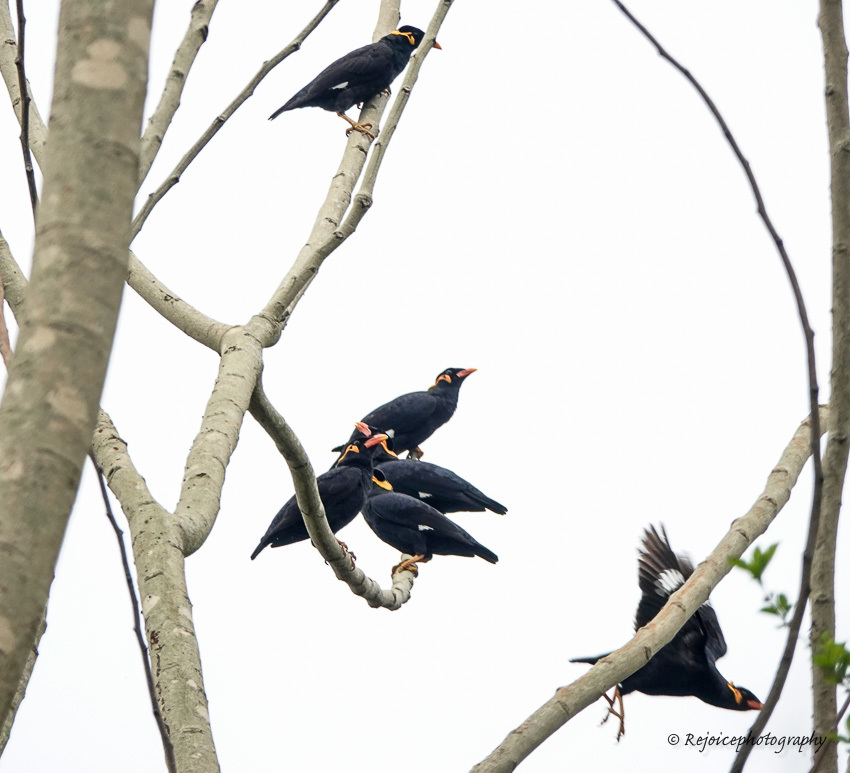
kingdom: Animalia
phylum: Chordata
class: Aves
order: Passeriformes
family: Sturnidae
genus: Gracula
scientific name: Gracula religiosa
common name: Common hill myna
